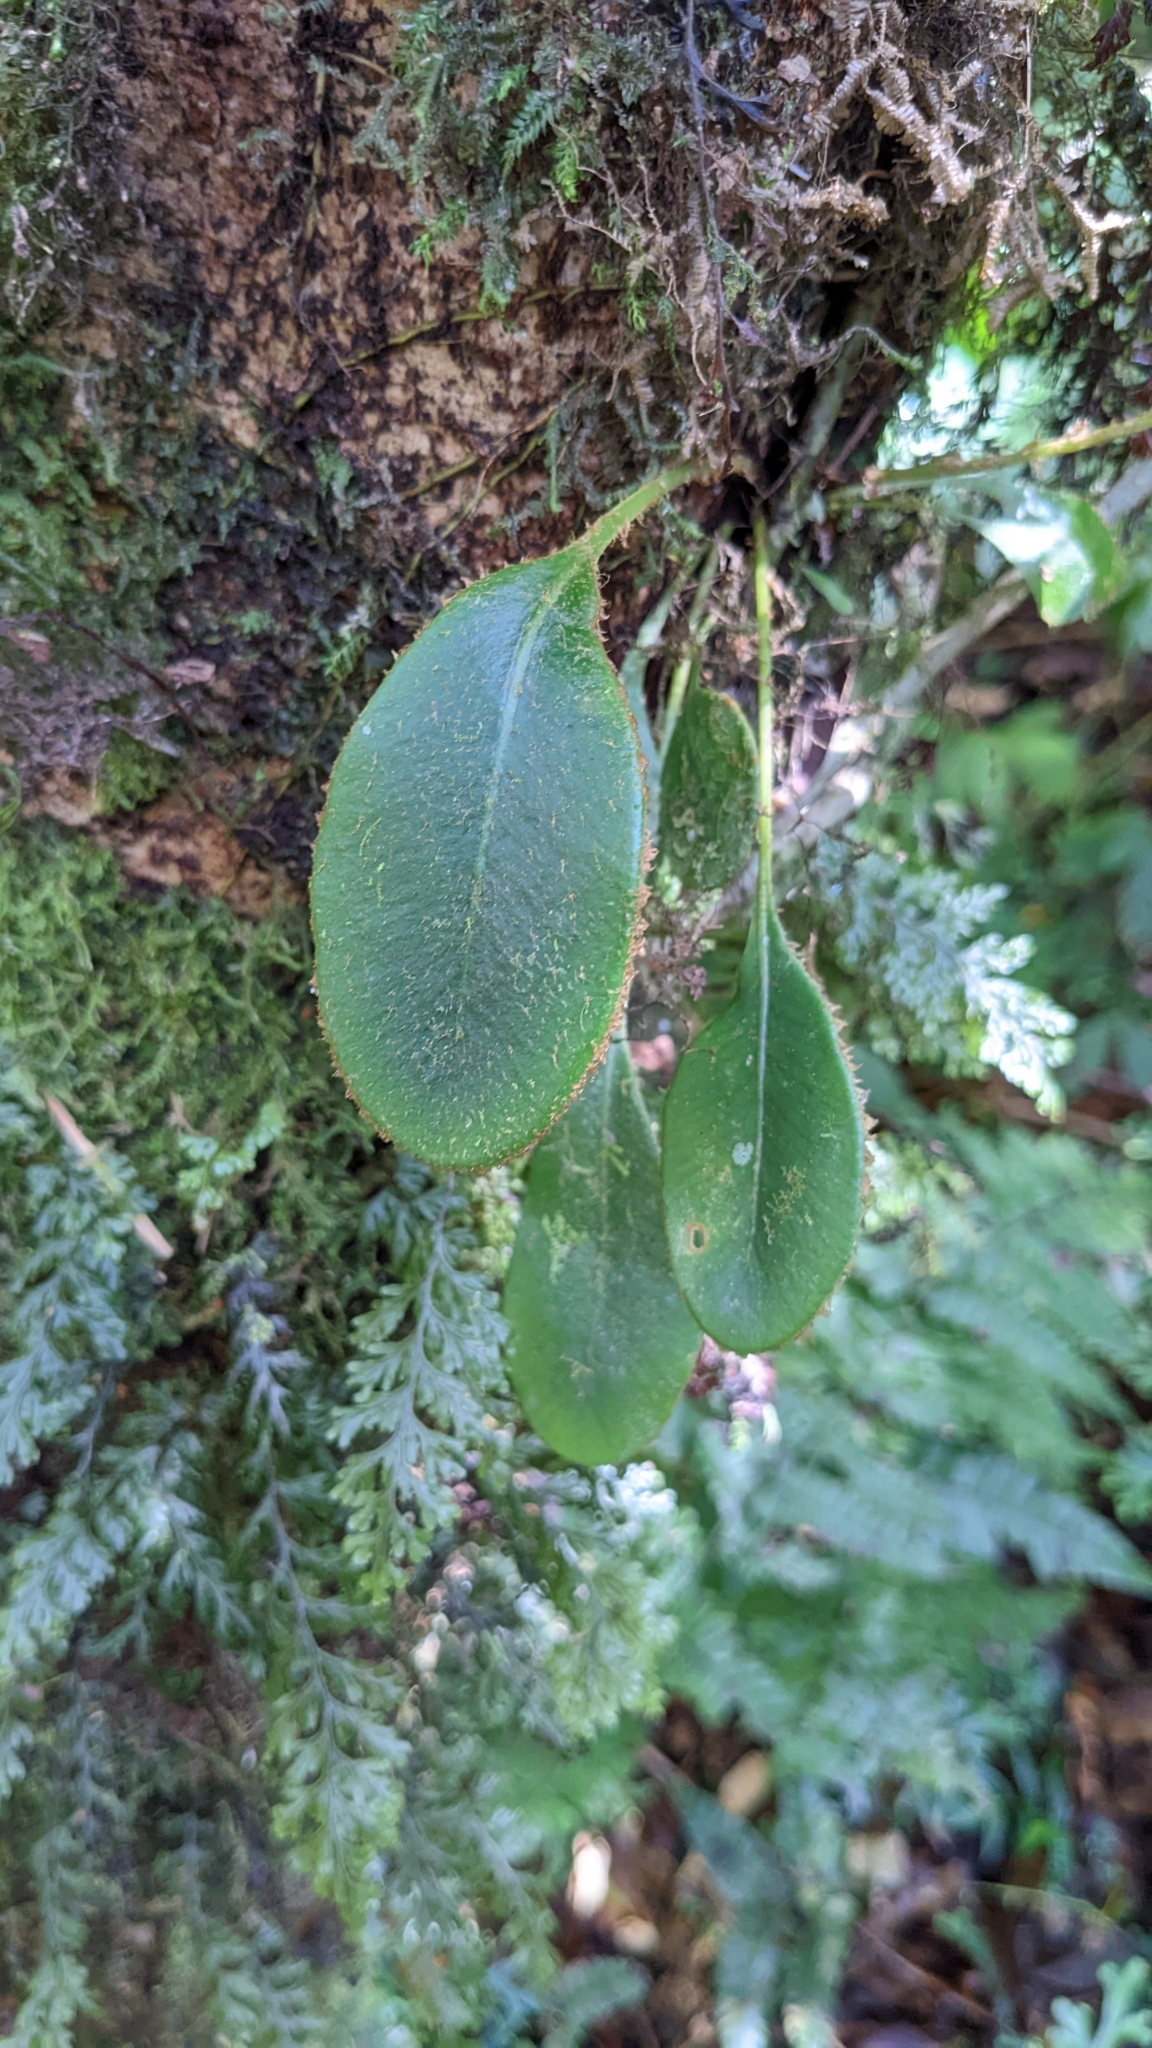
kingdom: Plantae
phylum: Tracheophyta
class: Polypodiopsida
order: Polypodiales
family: Dryopteridaceae
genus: Elaphoglossum
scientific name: Elaphoglossum luzonicum
